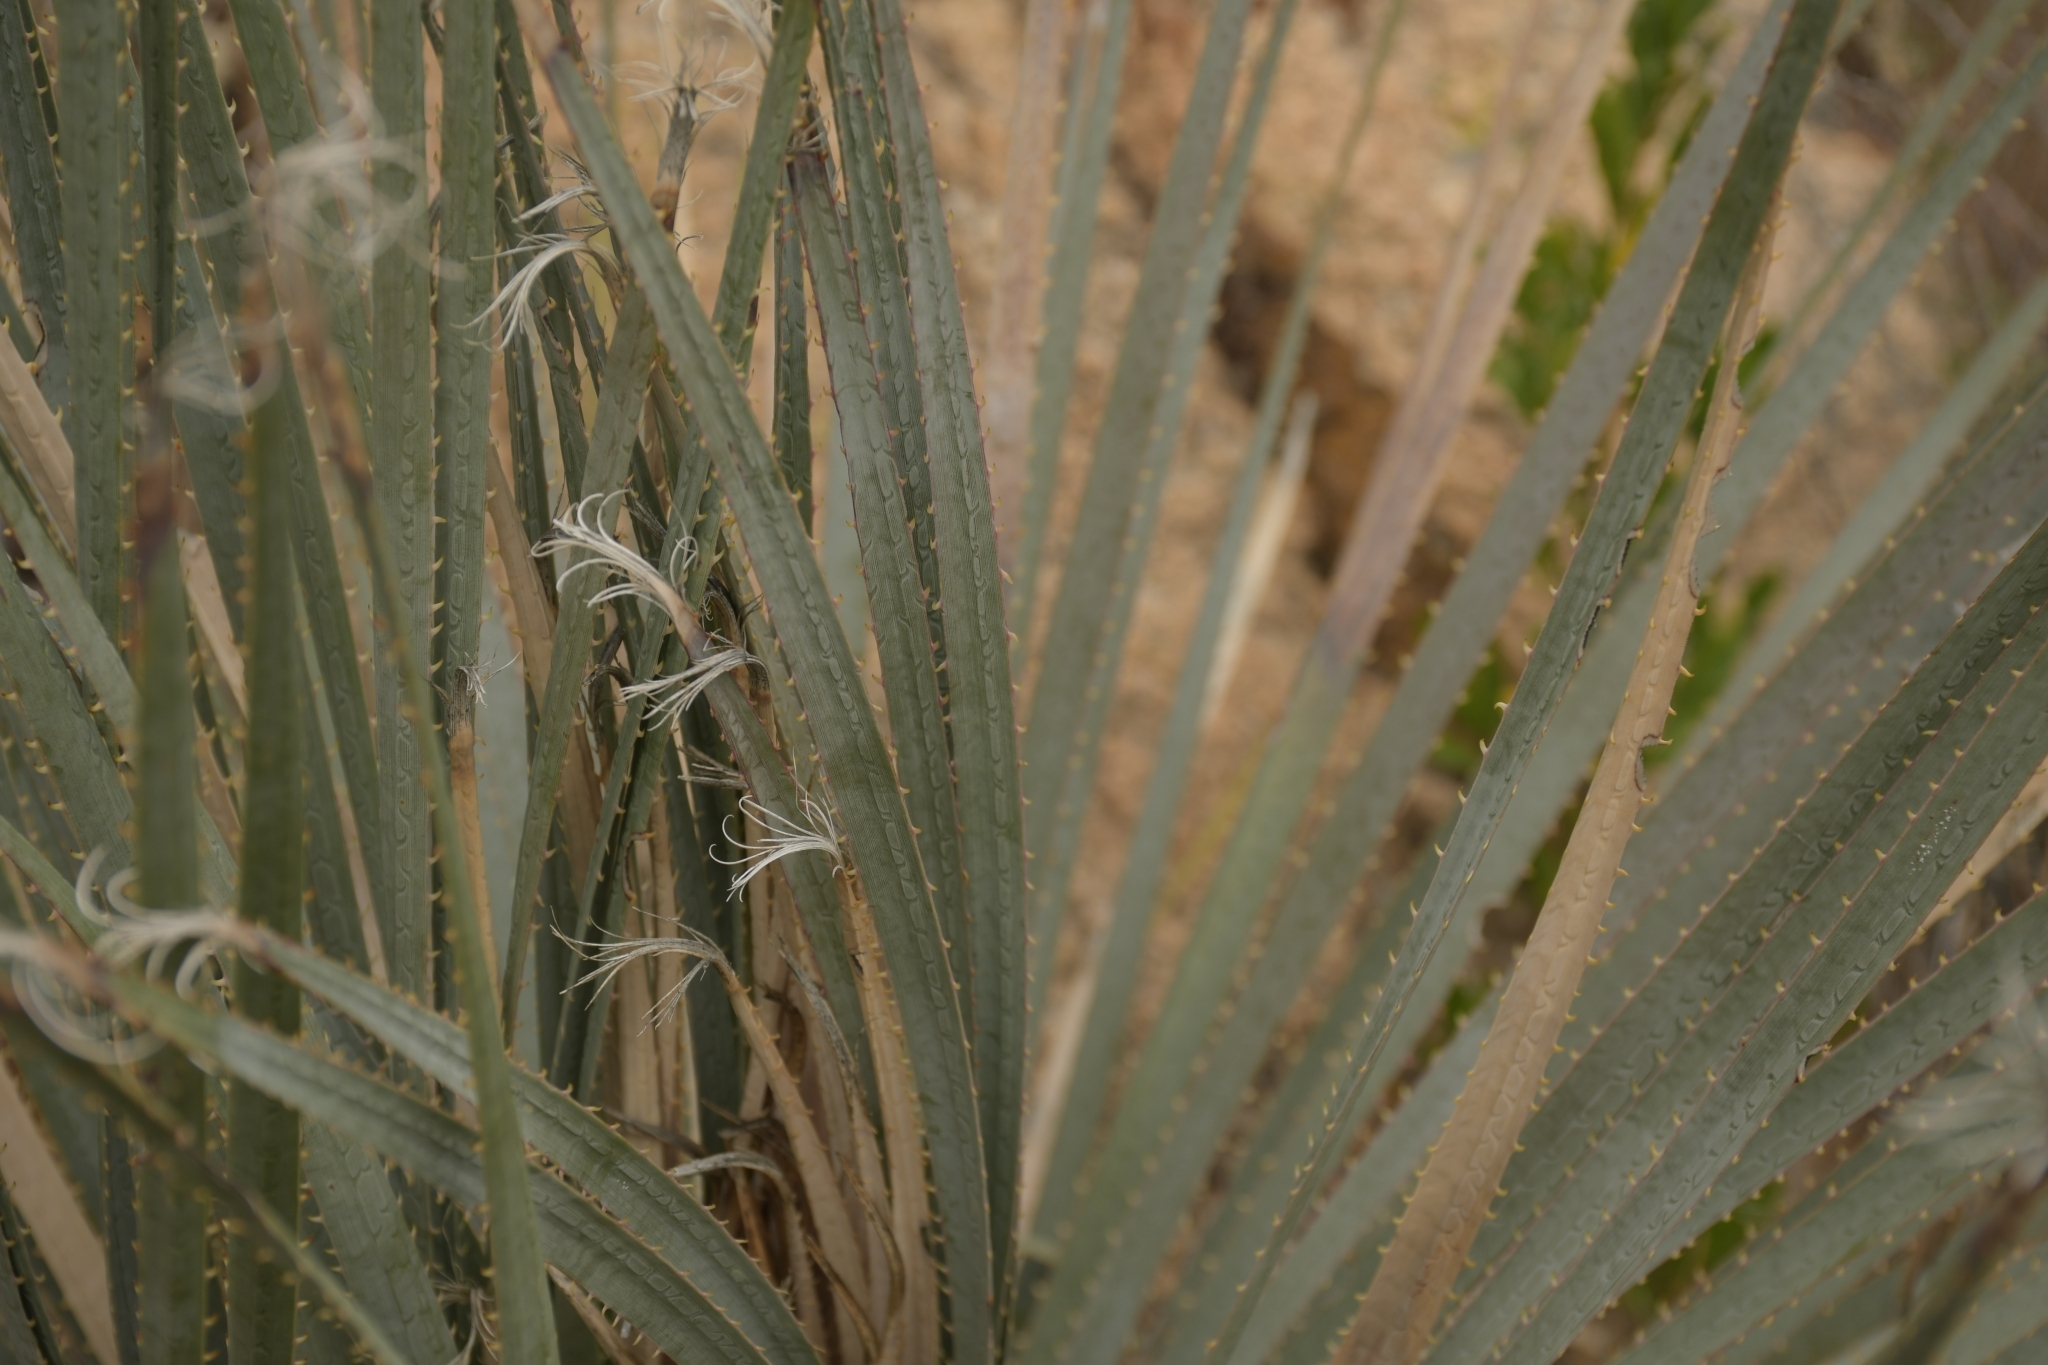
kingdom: Plantae
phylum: Tracheophyta
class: Liliopsida
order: Asparagales
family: Asparagaceae
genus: Dasylirion
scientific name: Dasylirion parryanum
